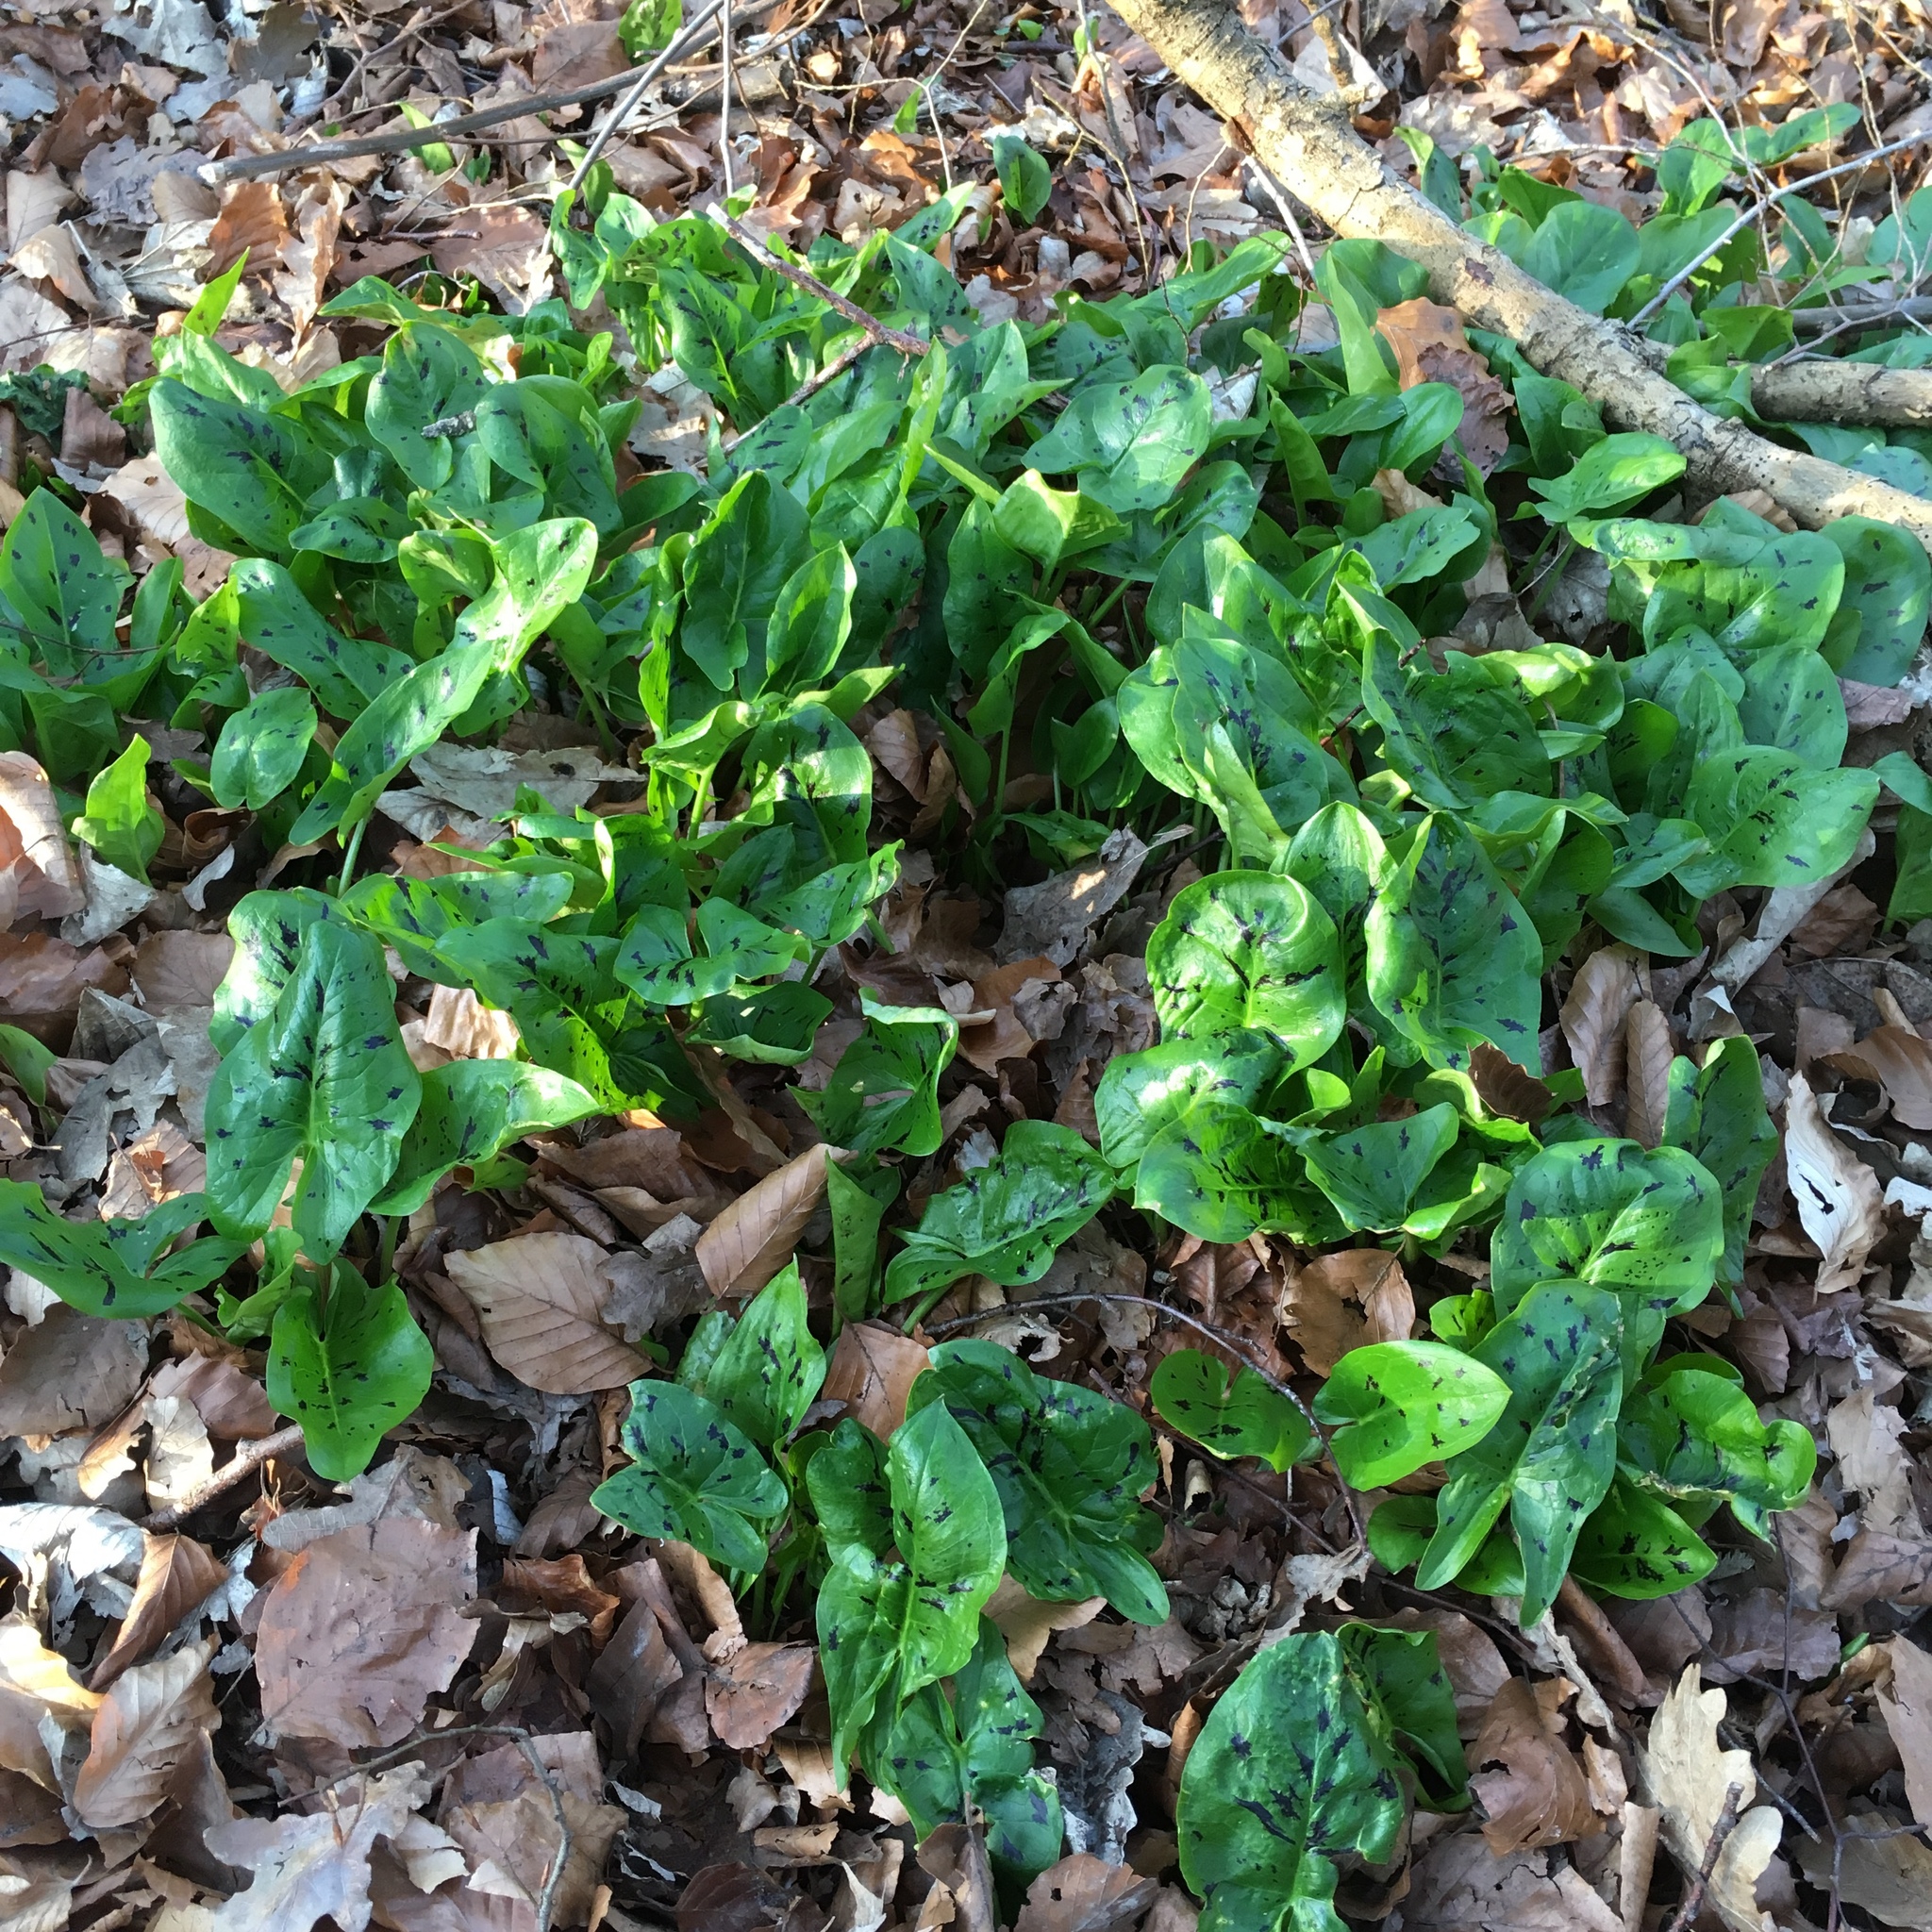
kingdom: Plantae
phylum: Tracheophyta
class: Liliopsida
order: Alismatales
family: Araceae
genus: Arum
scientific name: Arum maculatum
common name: Lords-and-ladies
